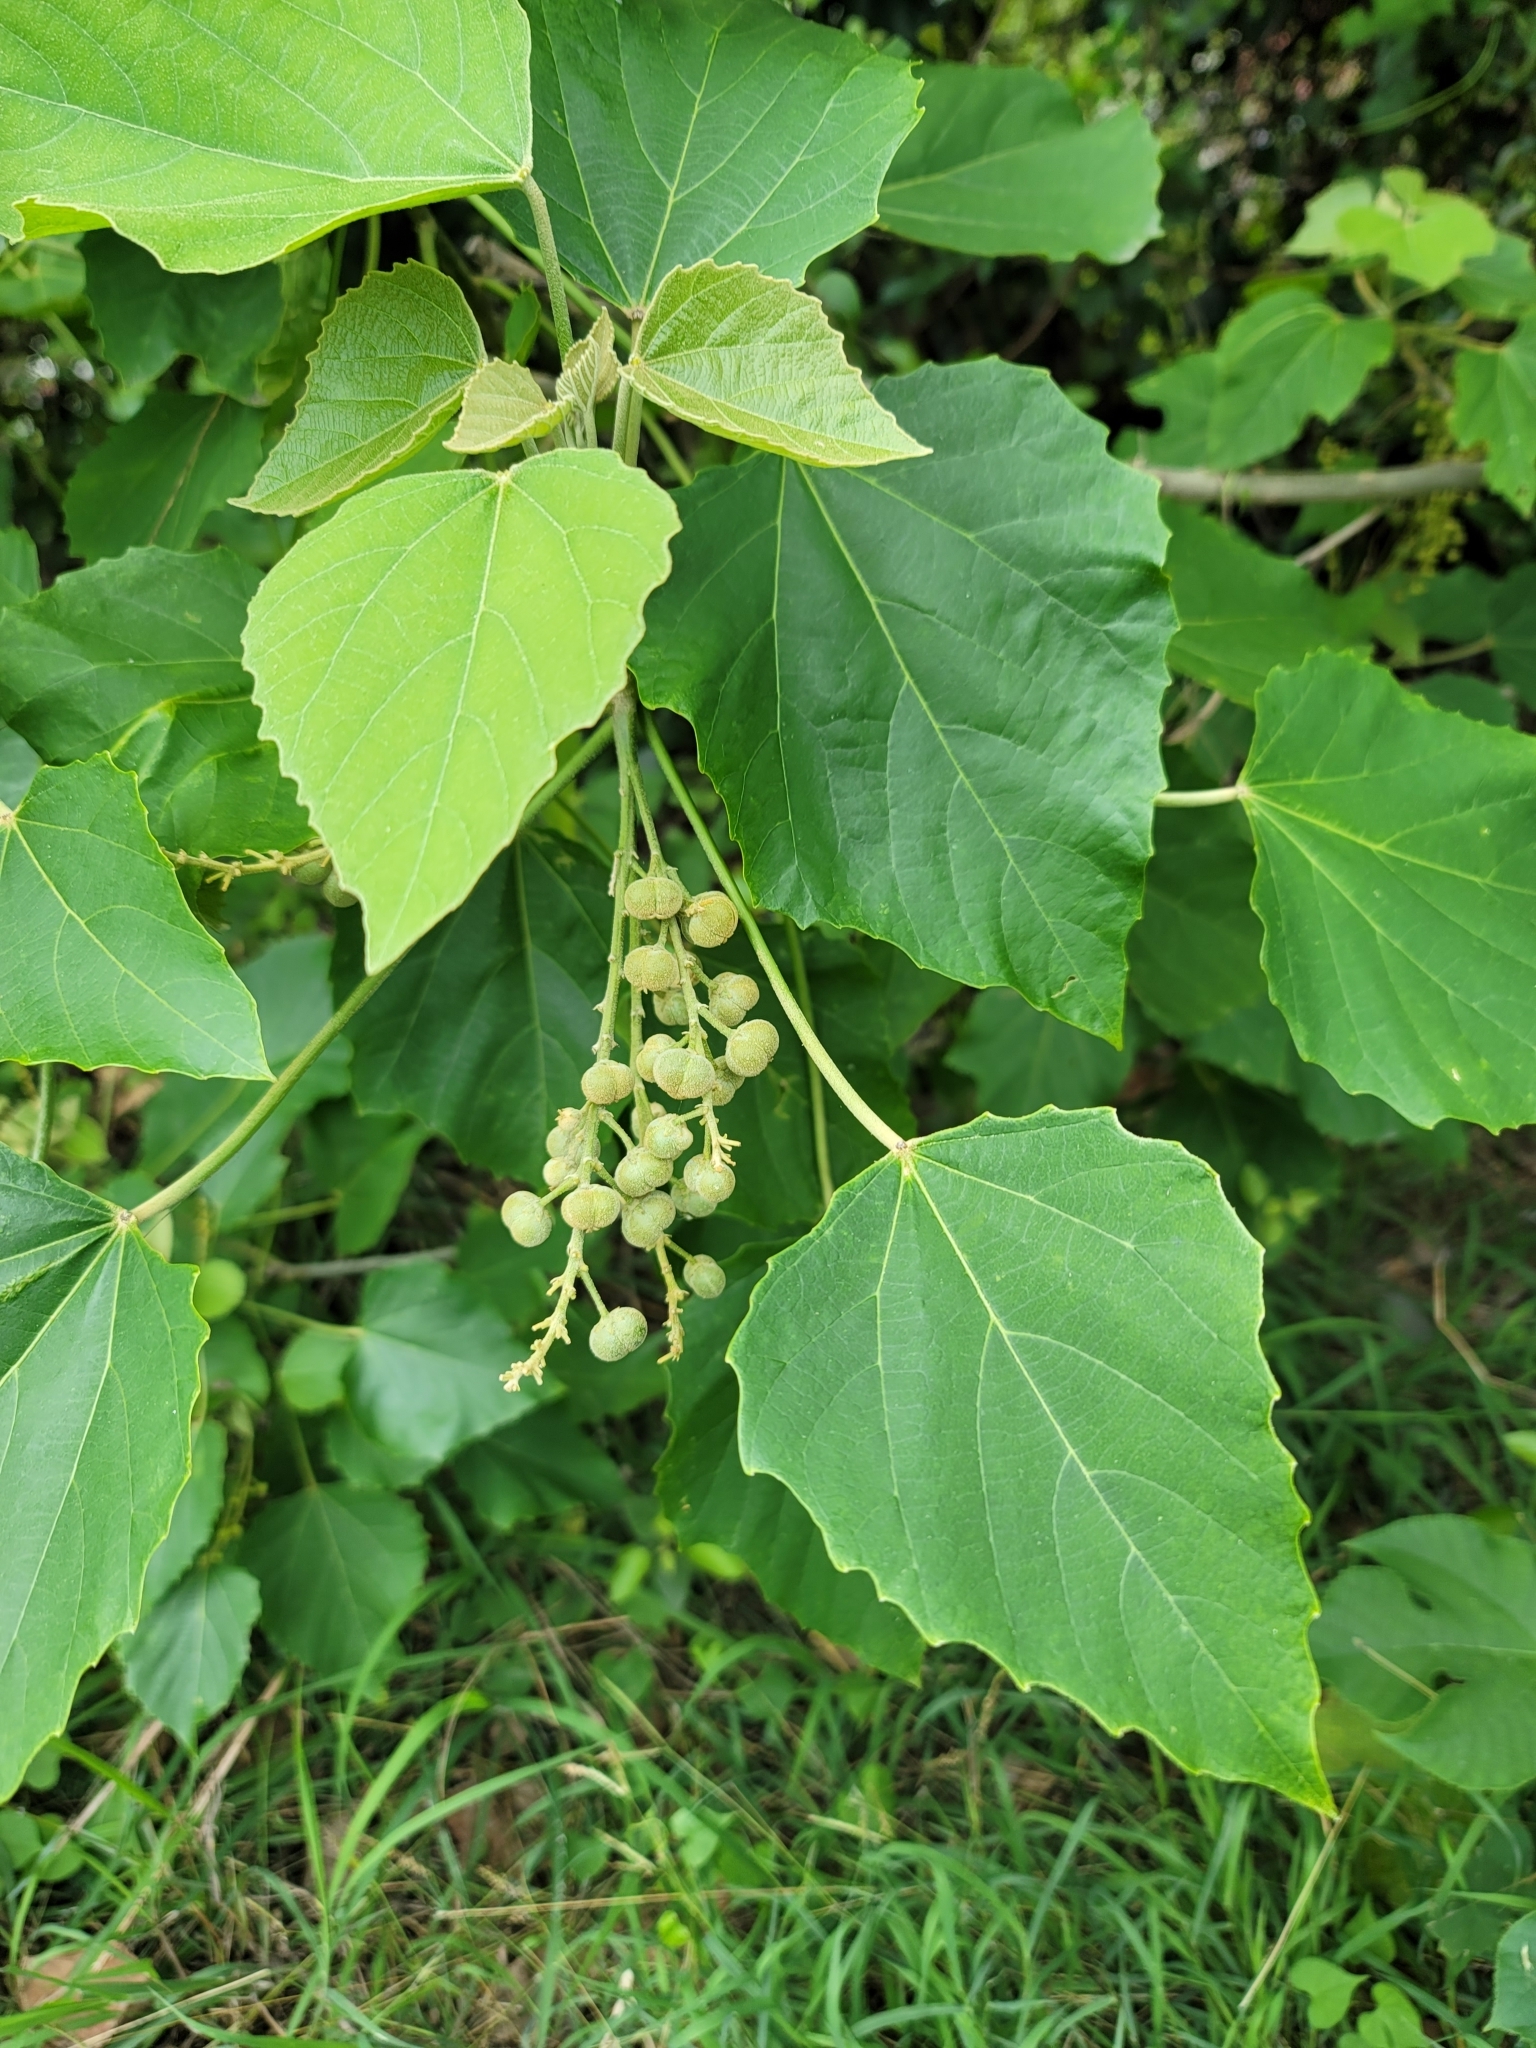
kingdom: Plantae
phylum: Tracheophyta
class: Magnoliopsida
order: Malpighiales
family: Euphorbiaceae
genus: Melanolepis
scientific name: Melanolepis multiglandulosa
